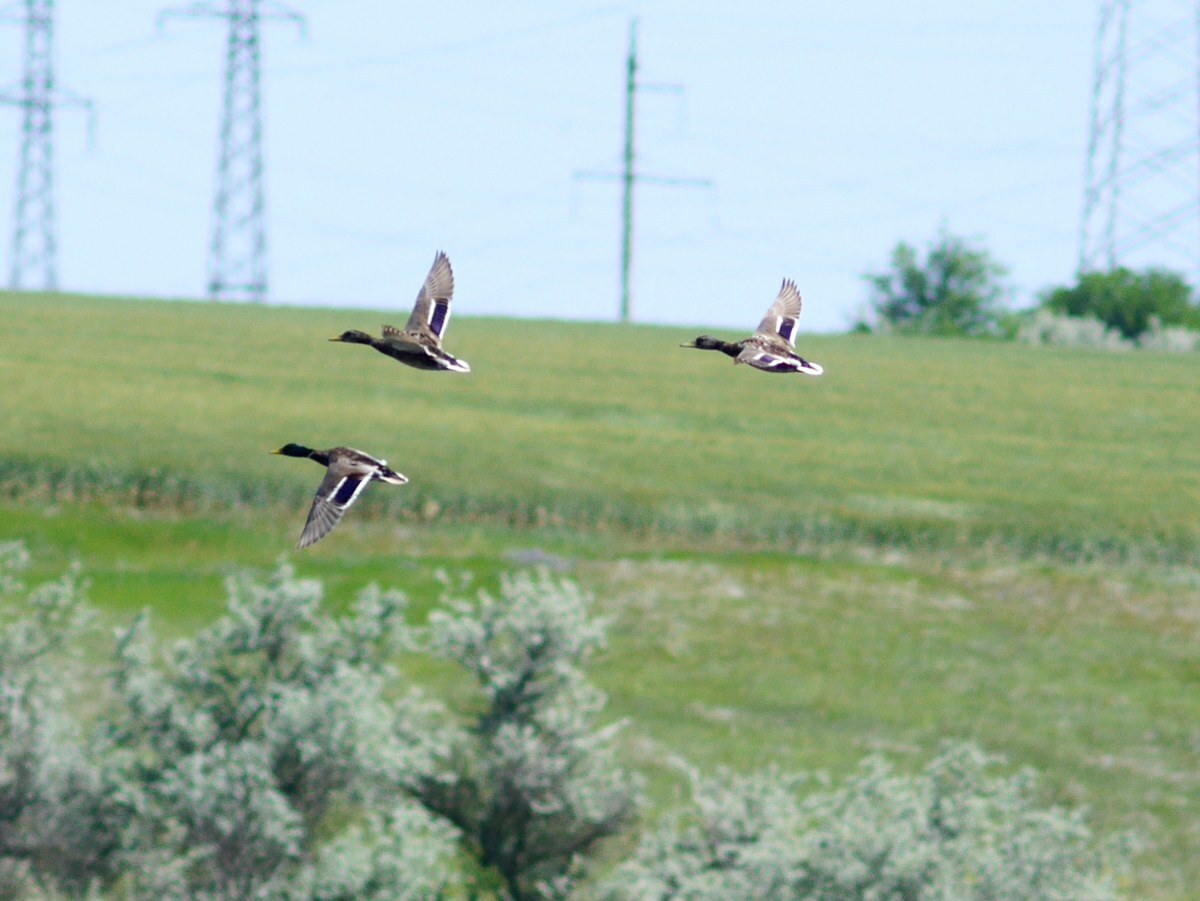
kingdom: Animalia
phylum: Chordata
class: Aves
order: Anseriformes
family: Anatidae
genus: Anas
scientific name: Anas platyrhynchos
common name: Mallard
